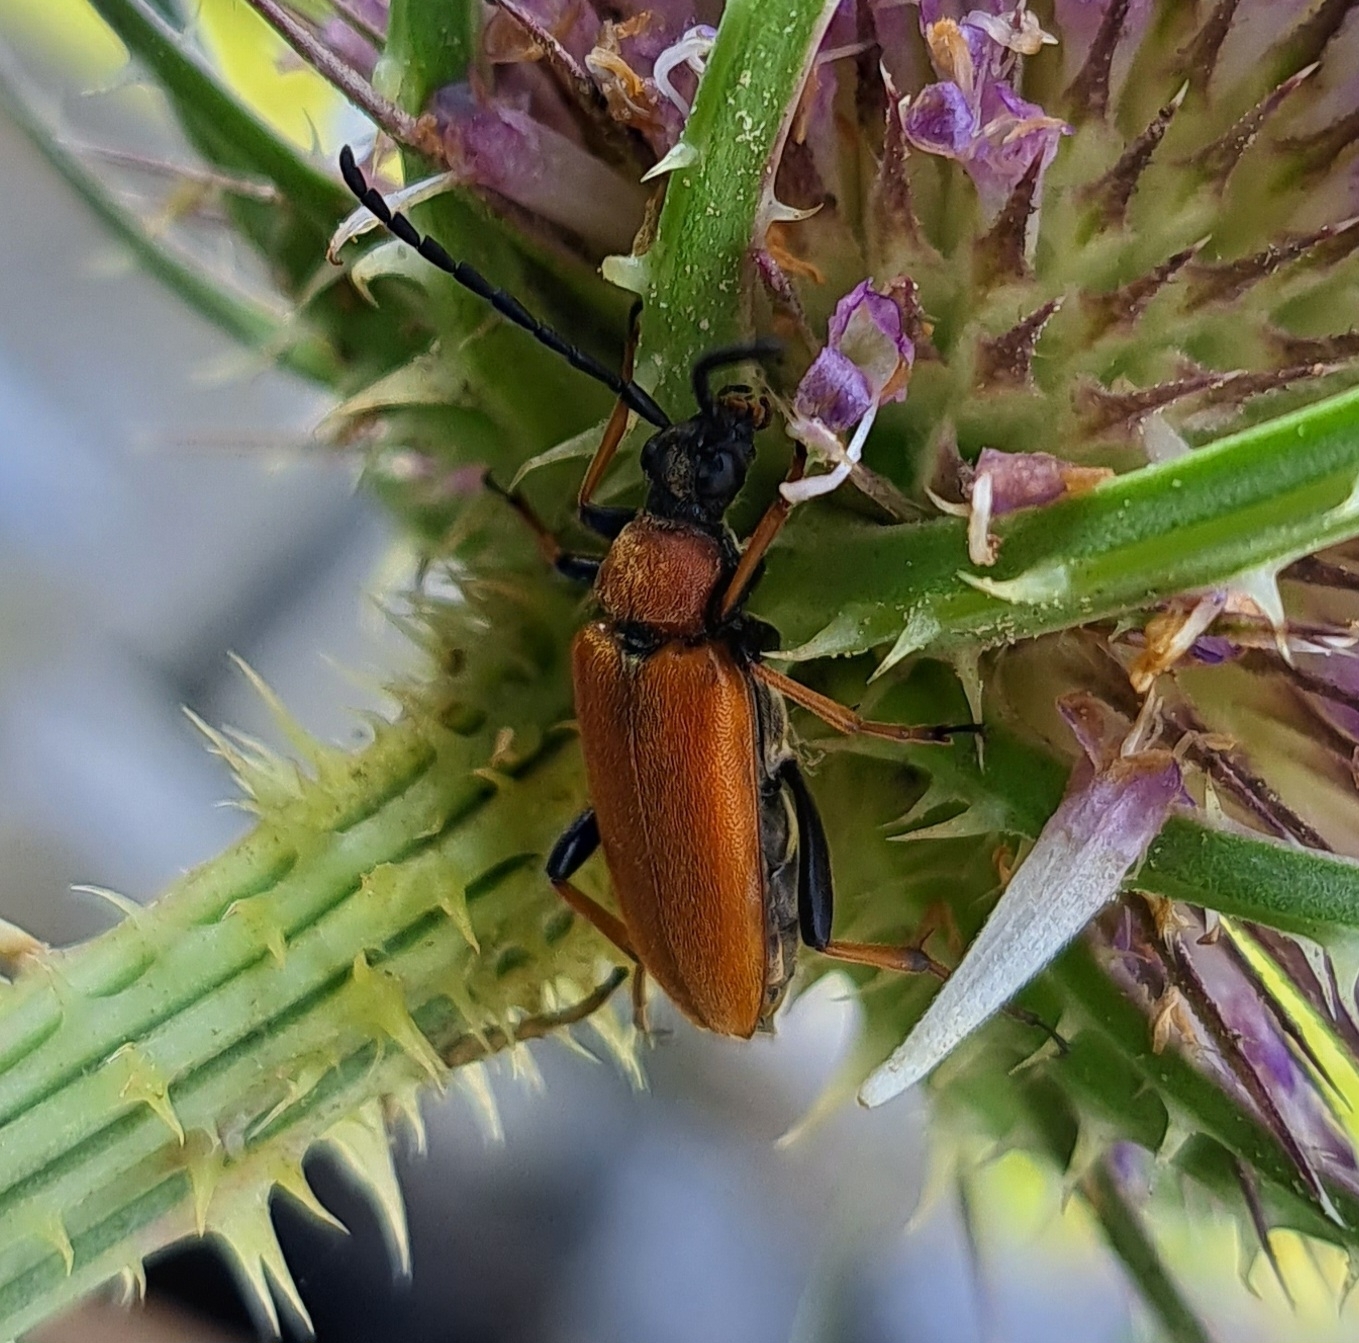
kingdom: Animalia
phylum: Arthropoda
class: Insecta
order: Coleoptera
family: Cerambycidae
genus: Stictoleptura
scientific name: Stictoleptura rubra
